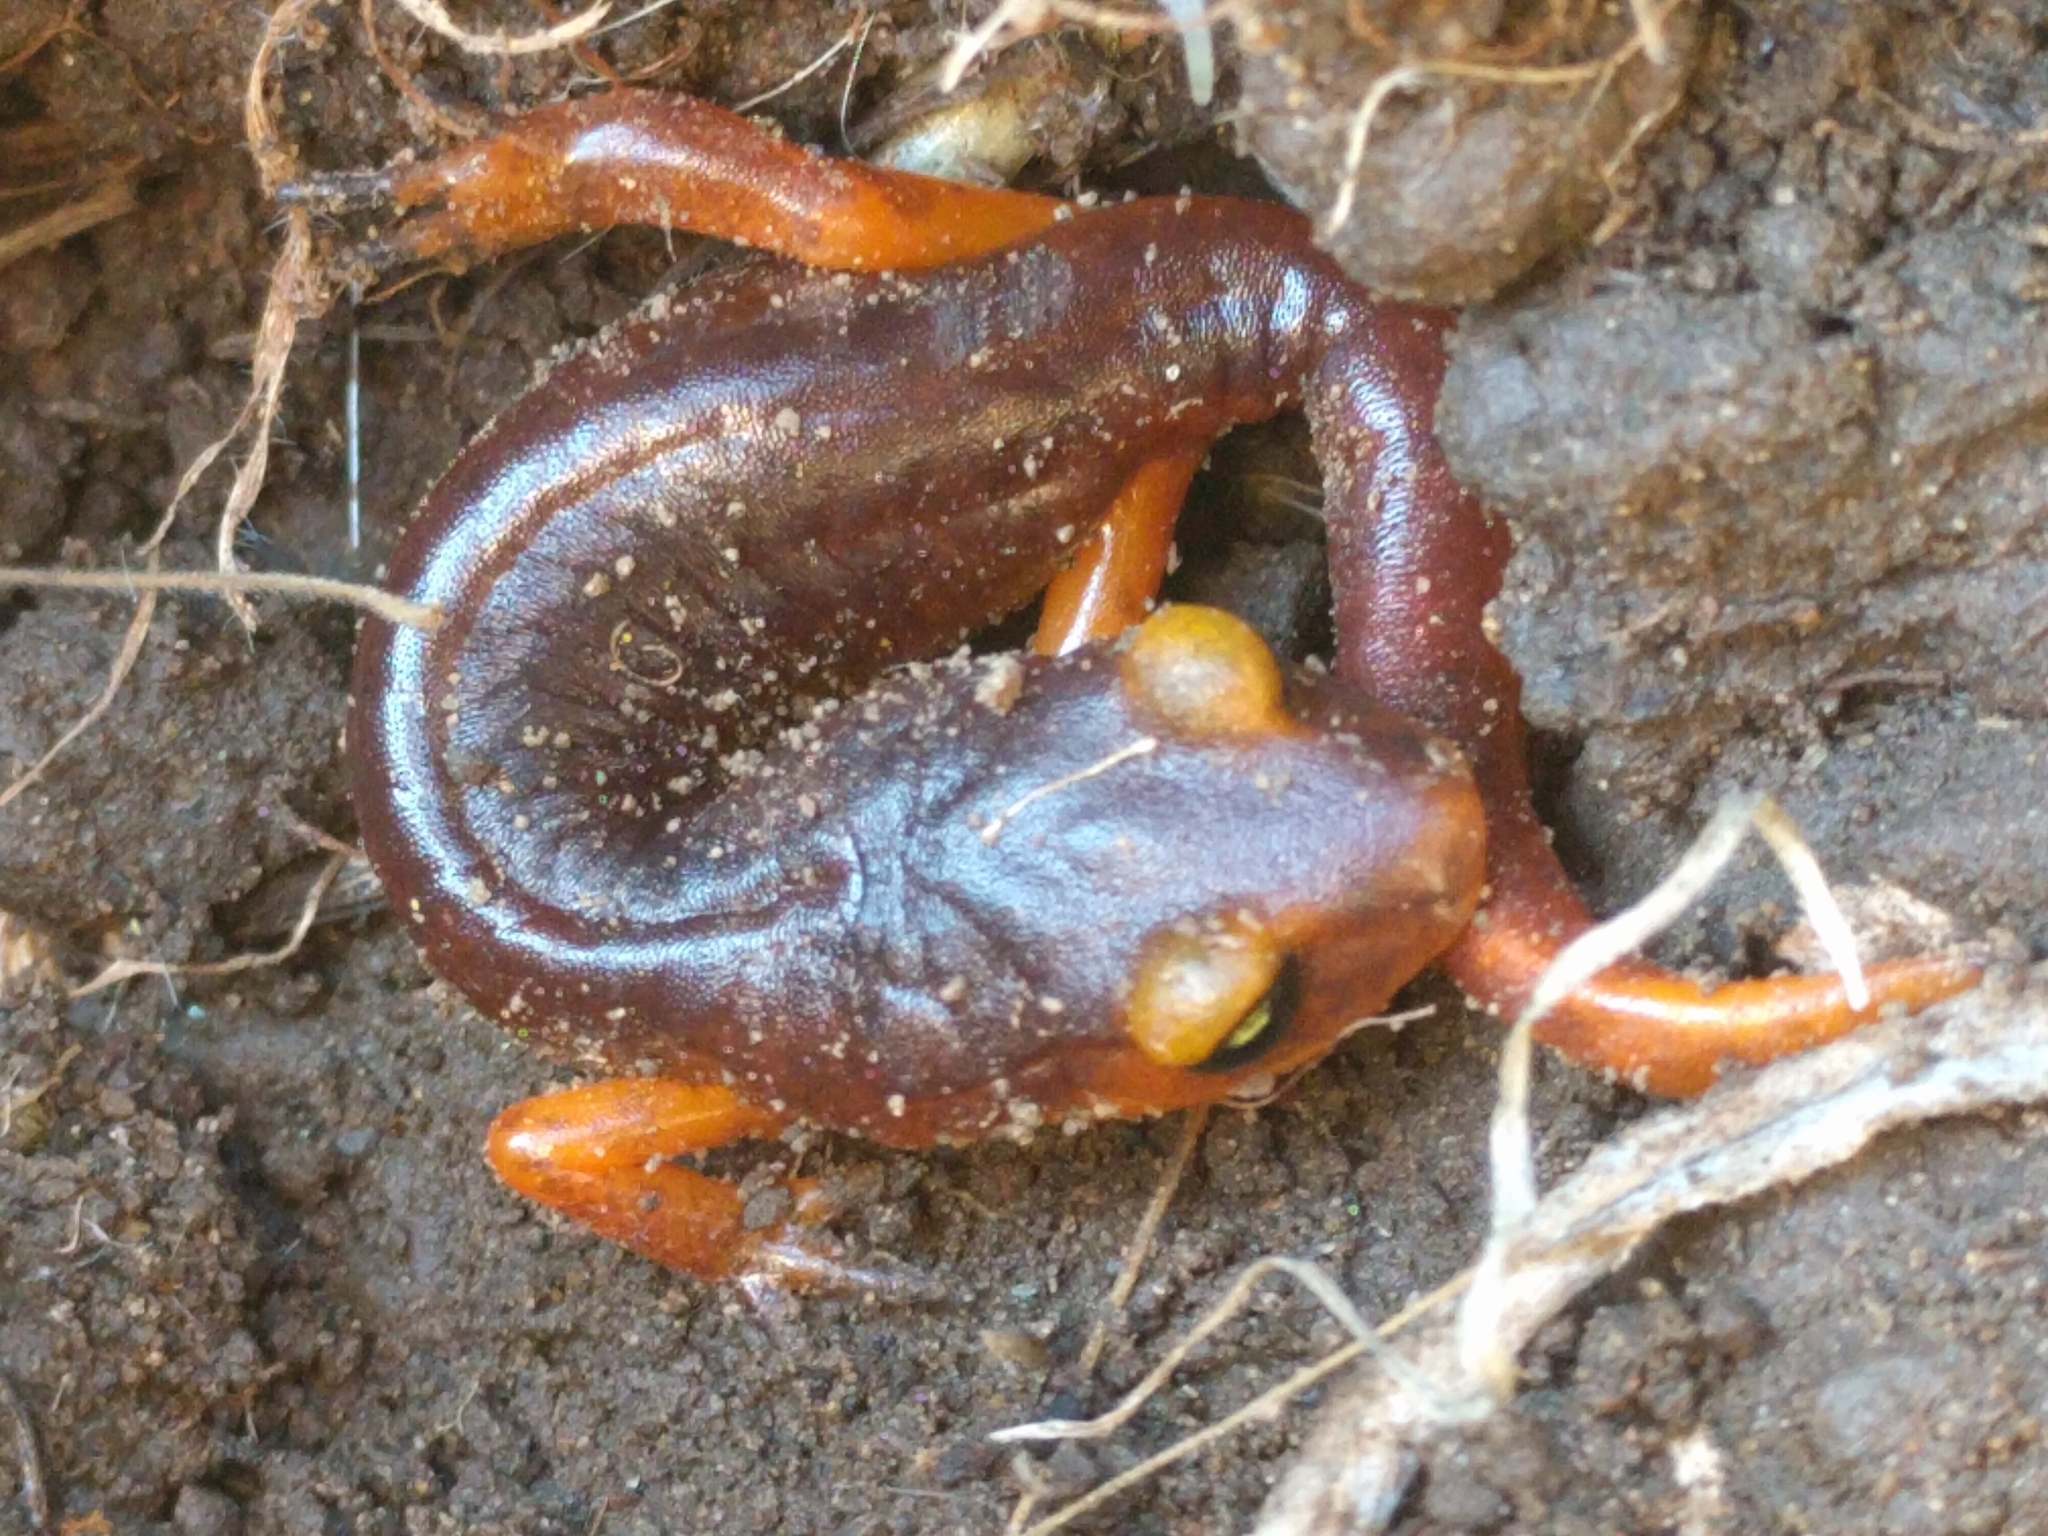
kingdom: Animalia
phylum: Chordata
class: Amphibia
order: Caudata
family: Plethodontidae
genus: Ensatina
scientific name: Ensatina eschscholtzii
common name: Ensatina
